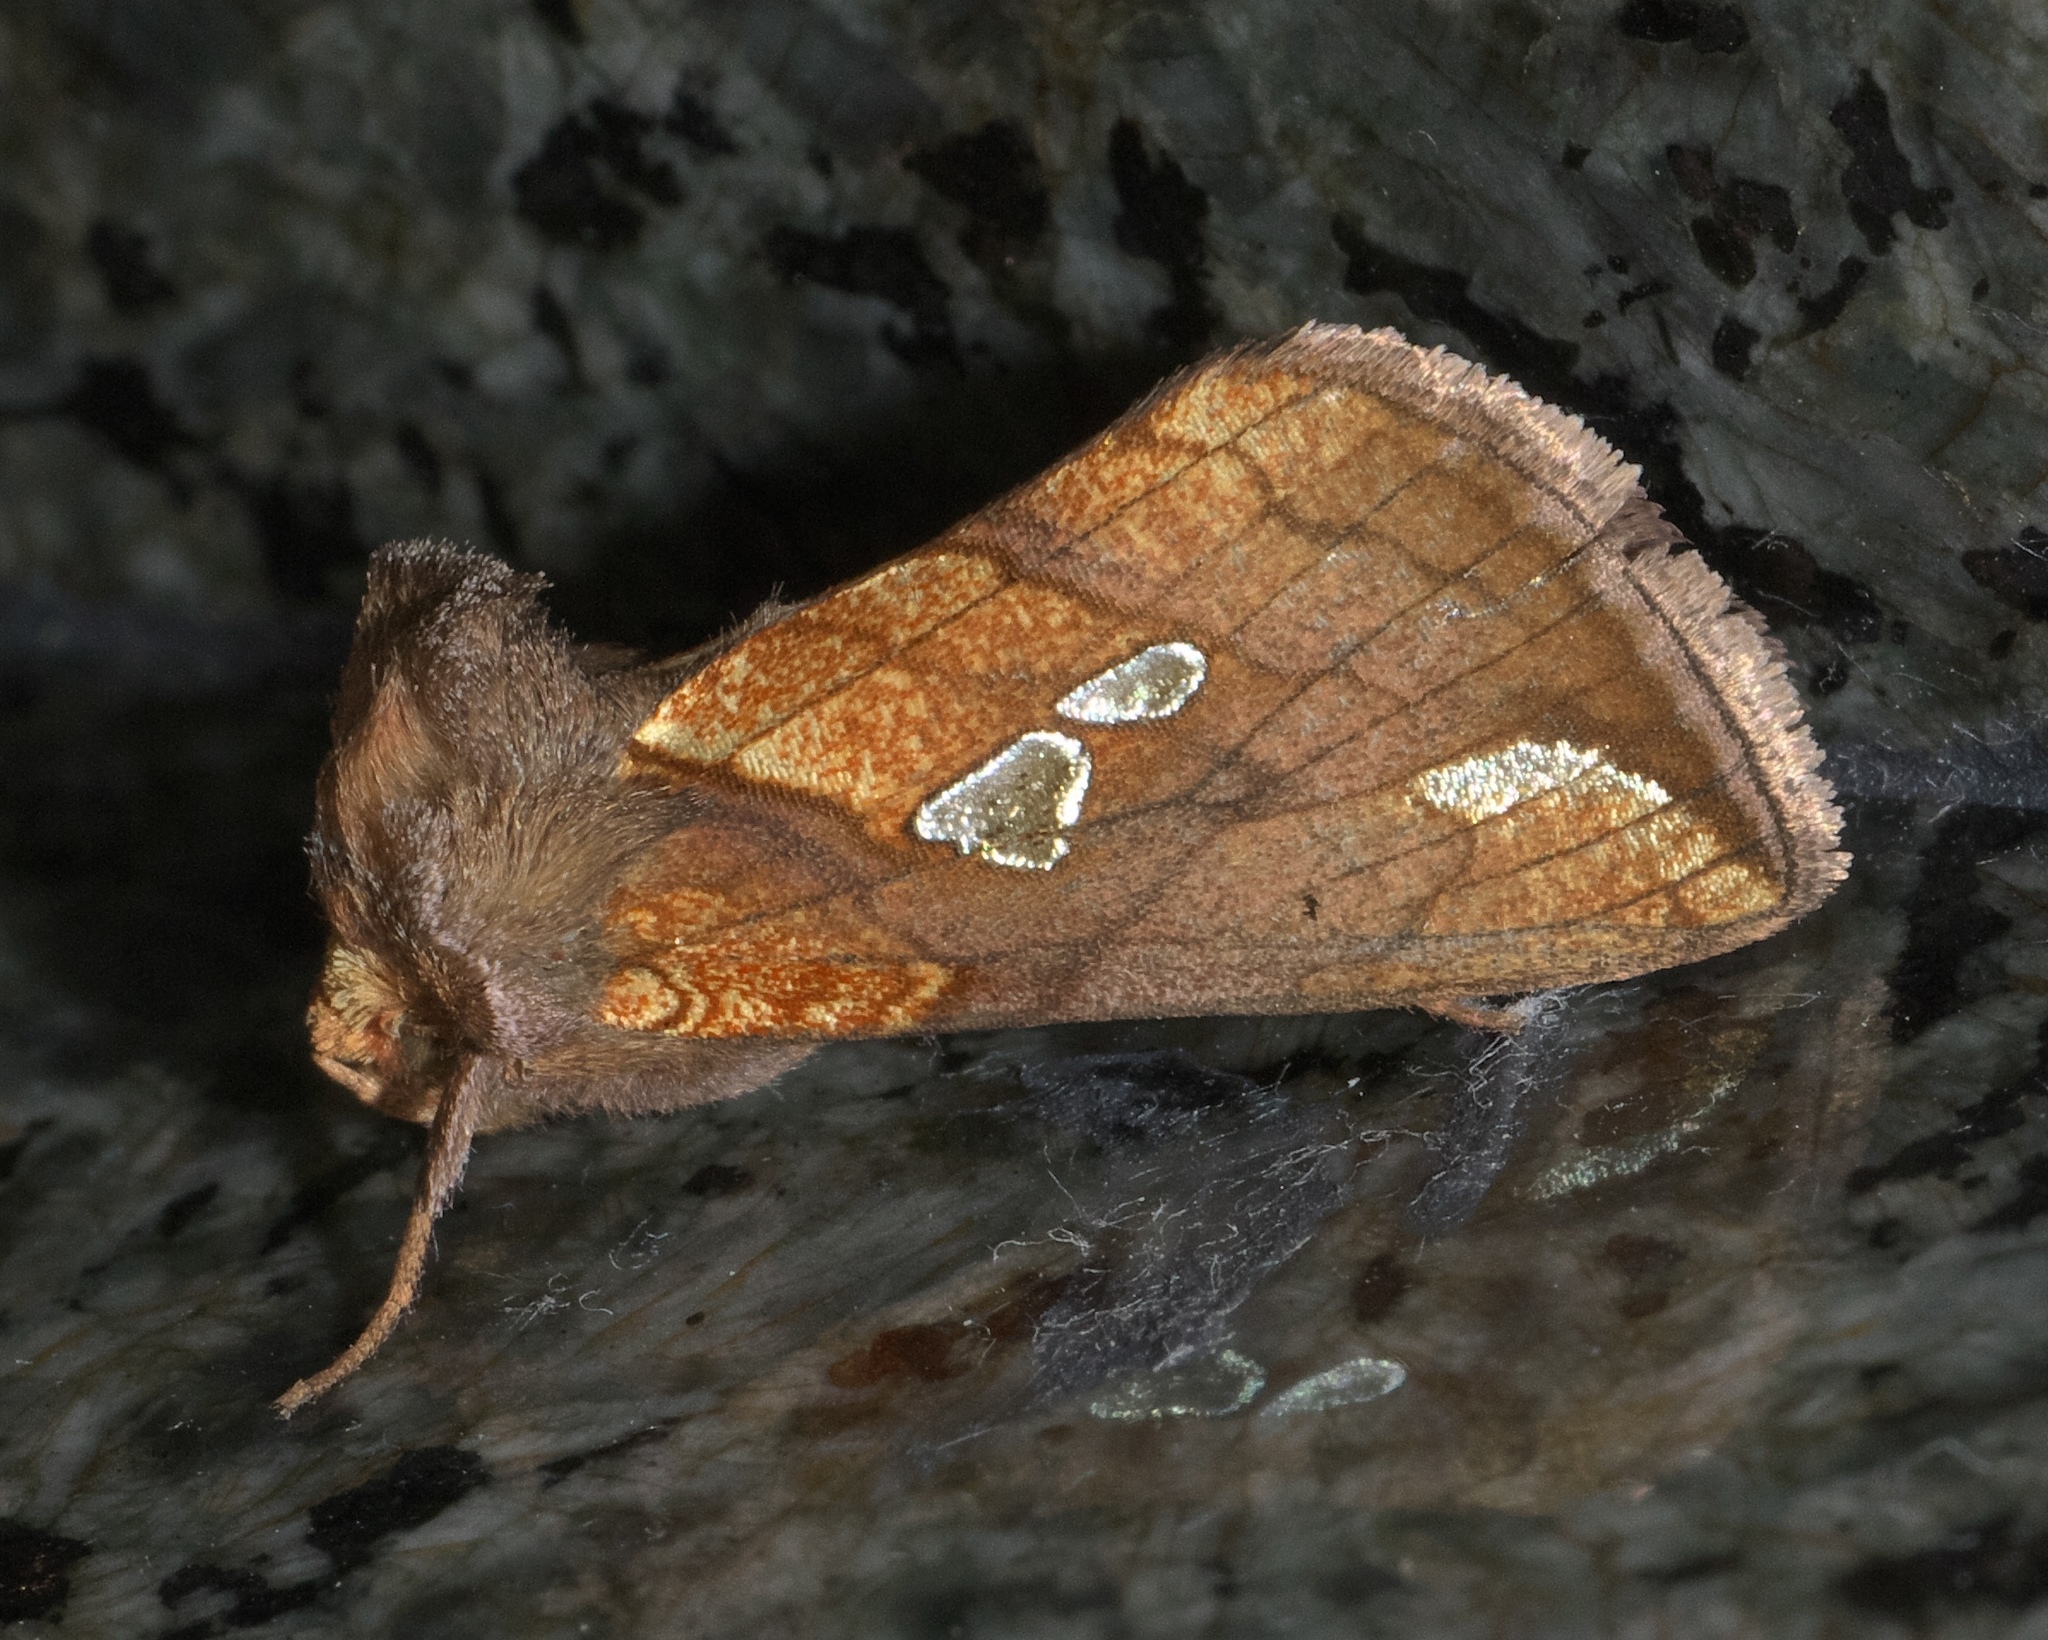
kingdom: Animalia
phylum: Arthropoda
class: Insecta
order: Lepidoptera
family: Noctuidae
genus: Plusia
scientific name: Plusia putnami
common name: Lempke's gold spot
